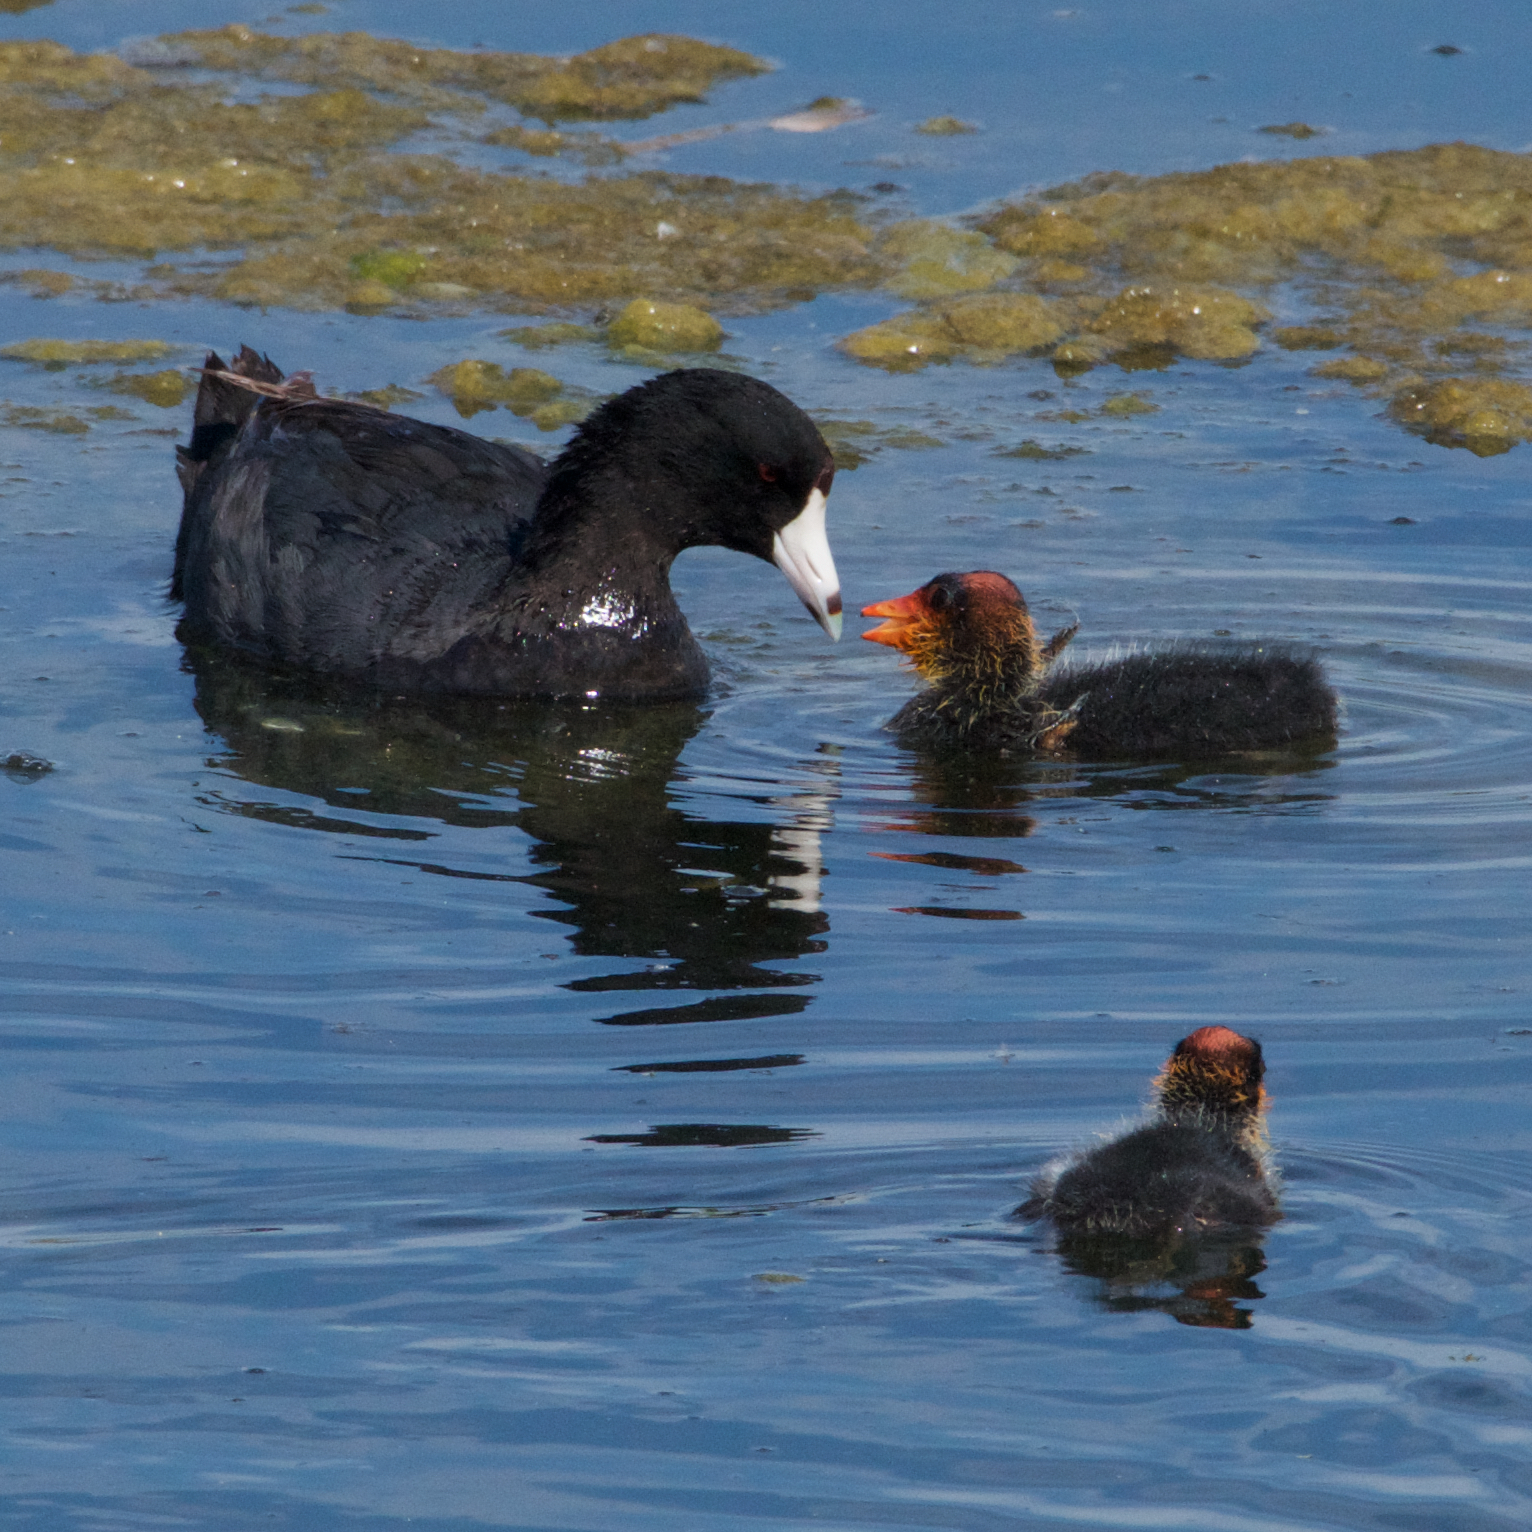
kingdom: Animalia
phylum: Chordata
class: Aves
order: Gruiformes
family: Rallidae
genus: Fulica
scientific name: Fulica americana
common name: American coot
